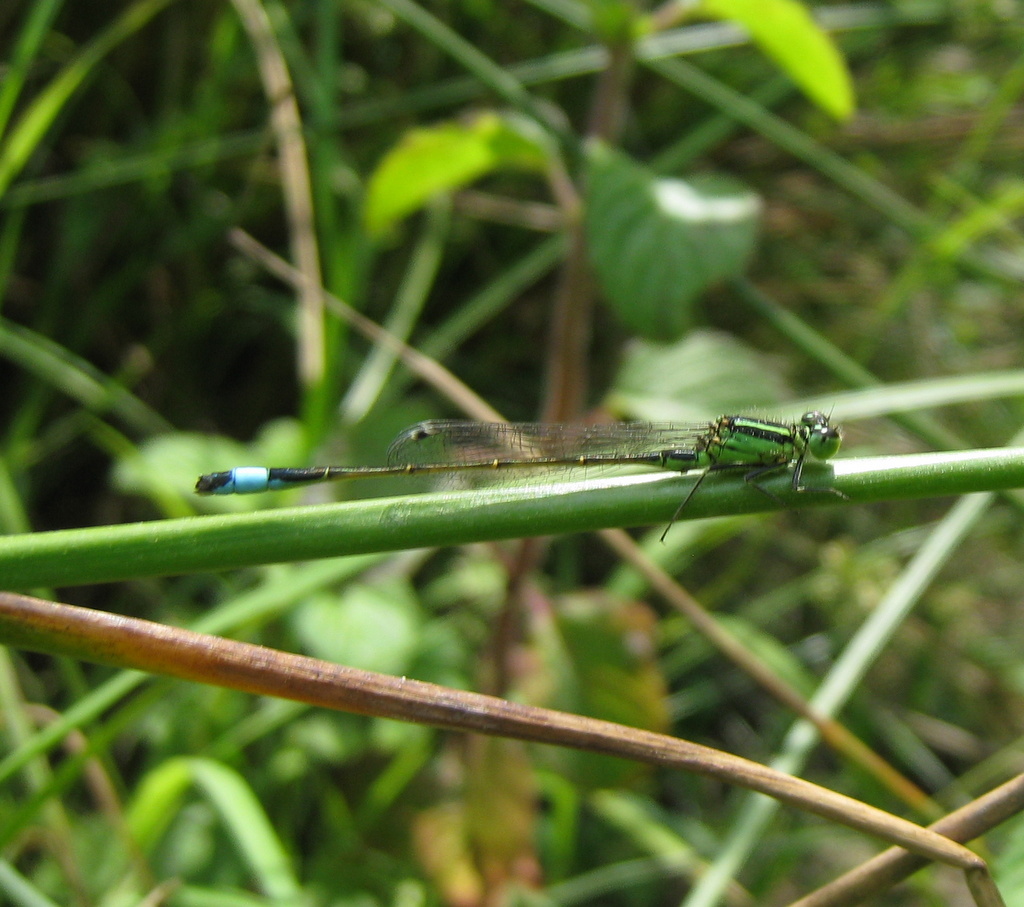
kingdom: Animalia
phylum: Arthropoda
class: Insecta
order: Odonata
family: Coenagrionidae
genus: Ischnura
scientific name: Ischnura genei
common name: Island bluetail
